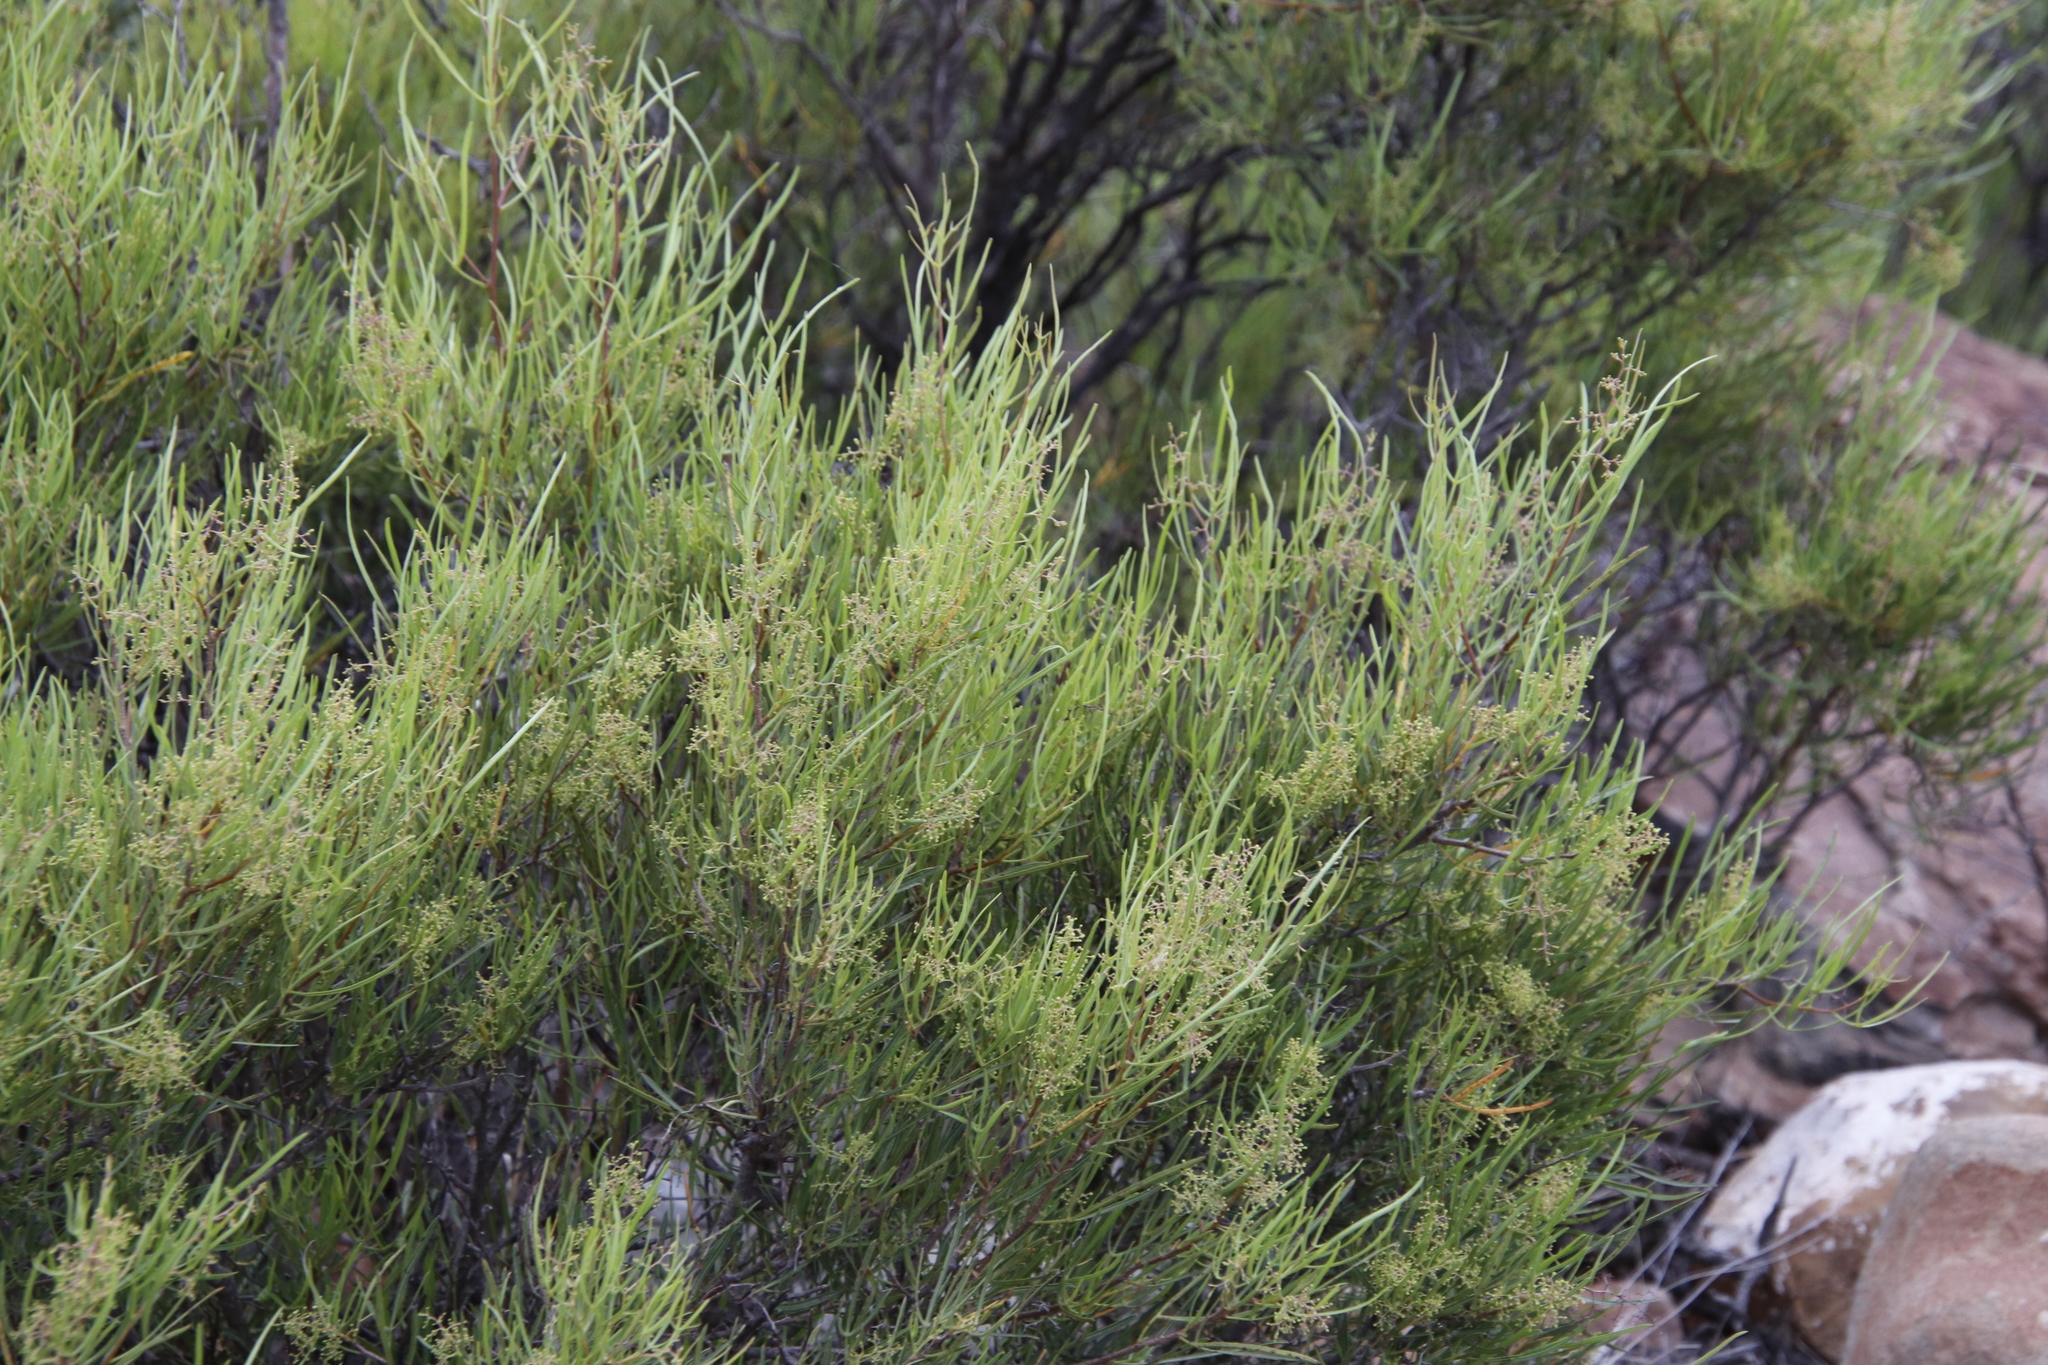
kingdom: Plantae
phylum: Tracheophyta
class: Magnoliopsida
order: Sapindales
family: Anacardiaceae
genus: Searsia
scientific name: Searsia dregeana
